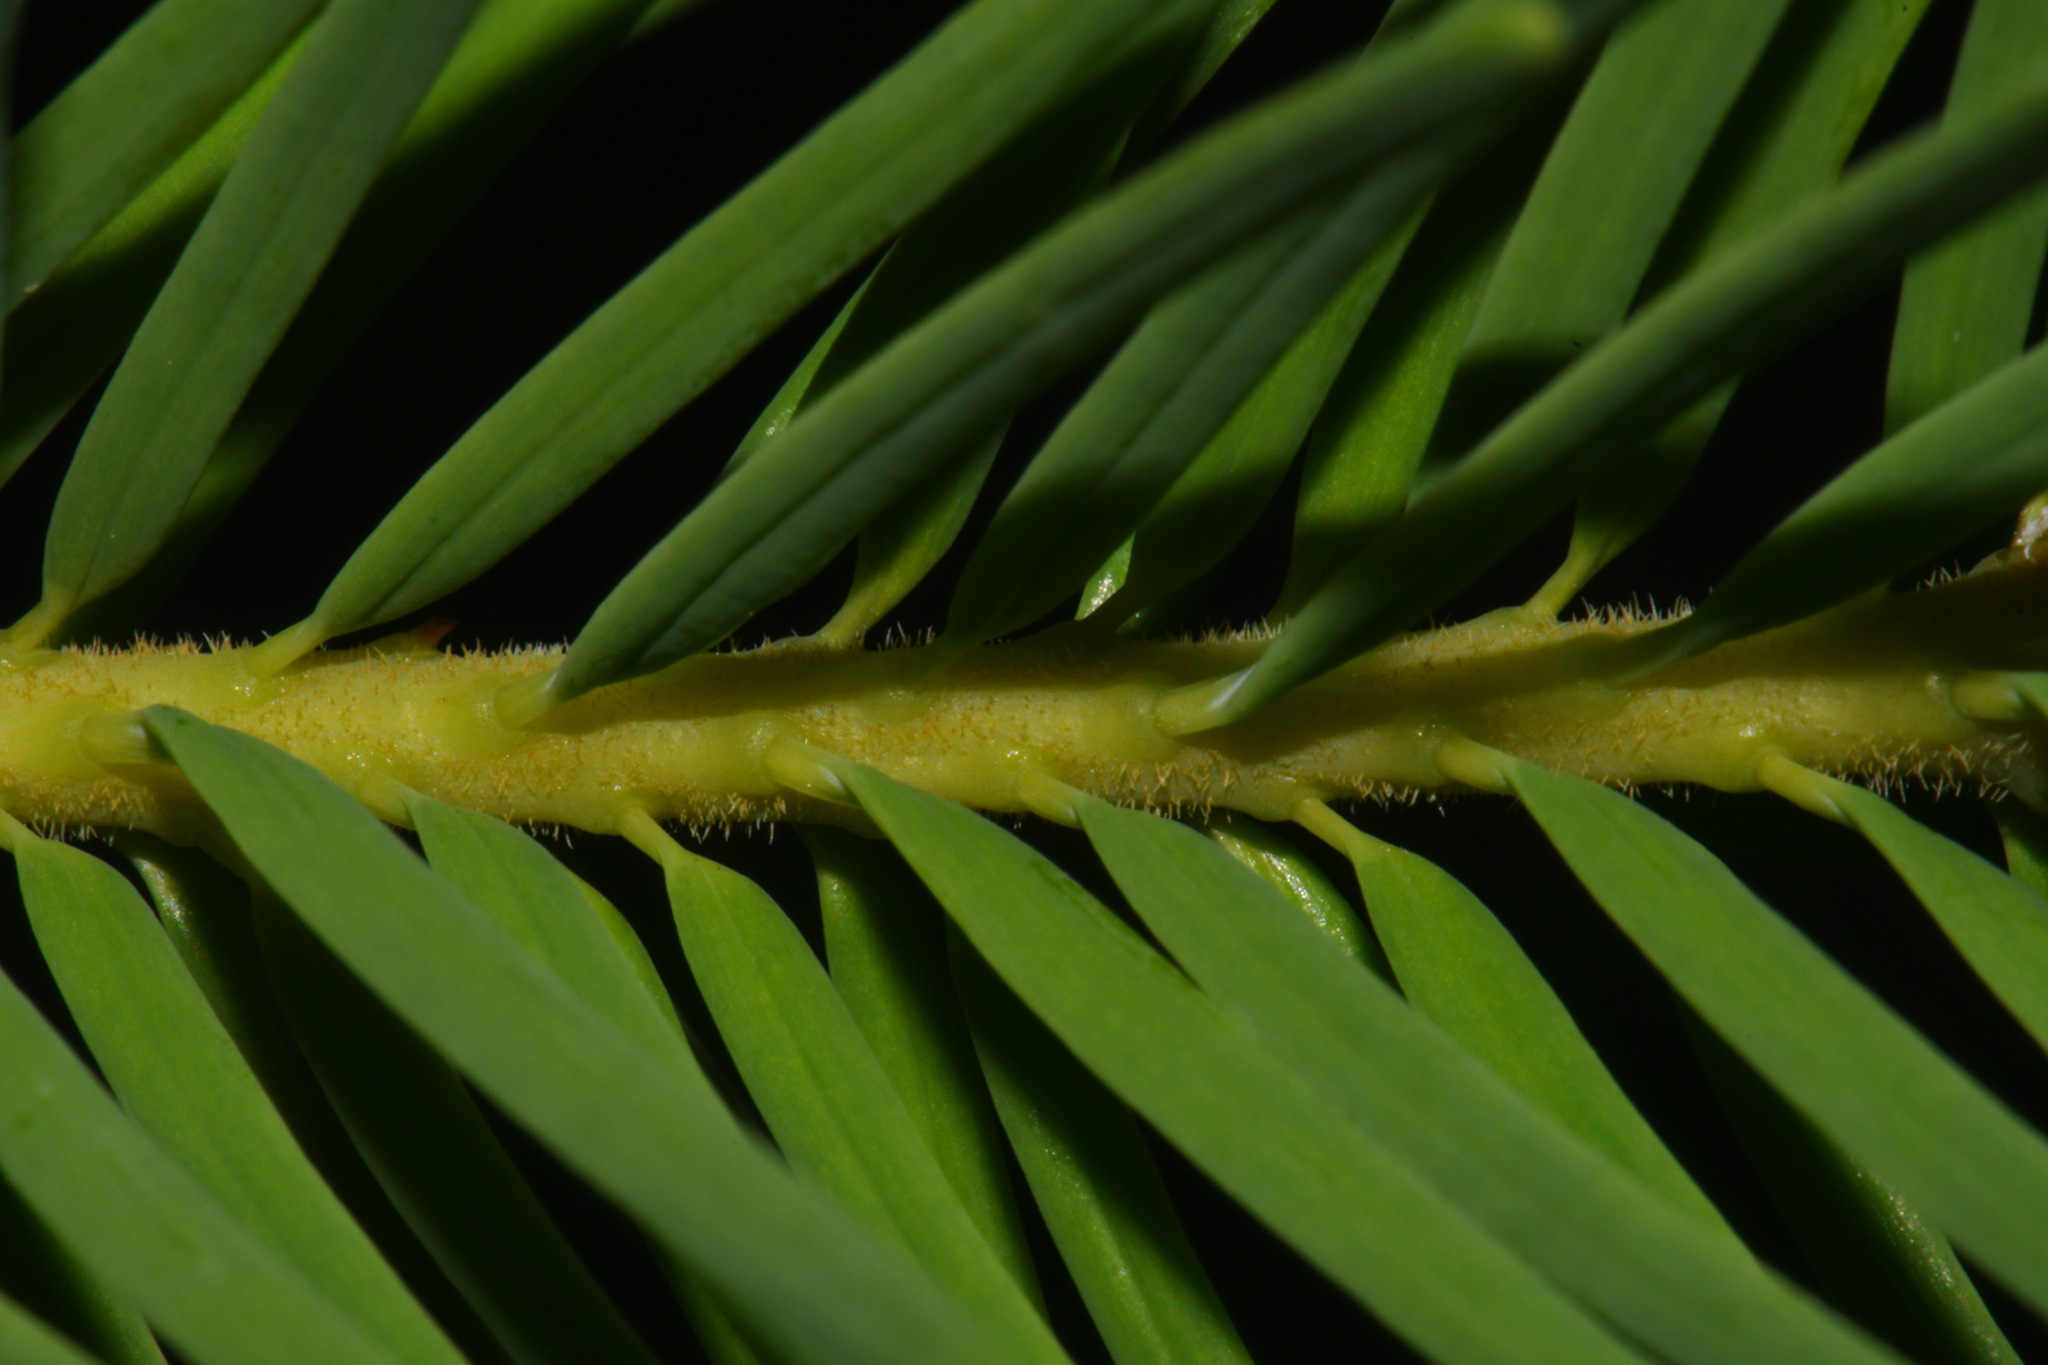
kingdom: Plantae
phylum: Tracheophyta
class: Pinopsida
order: Pinales
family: Pinaceae
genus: Pseudotsuga
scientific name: Pseudotsuga menziesii
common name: Douglas fir
